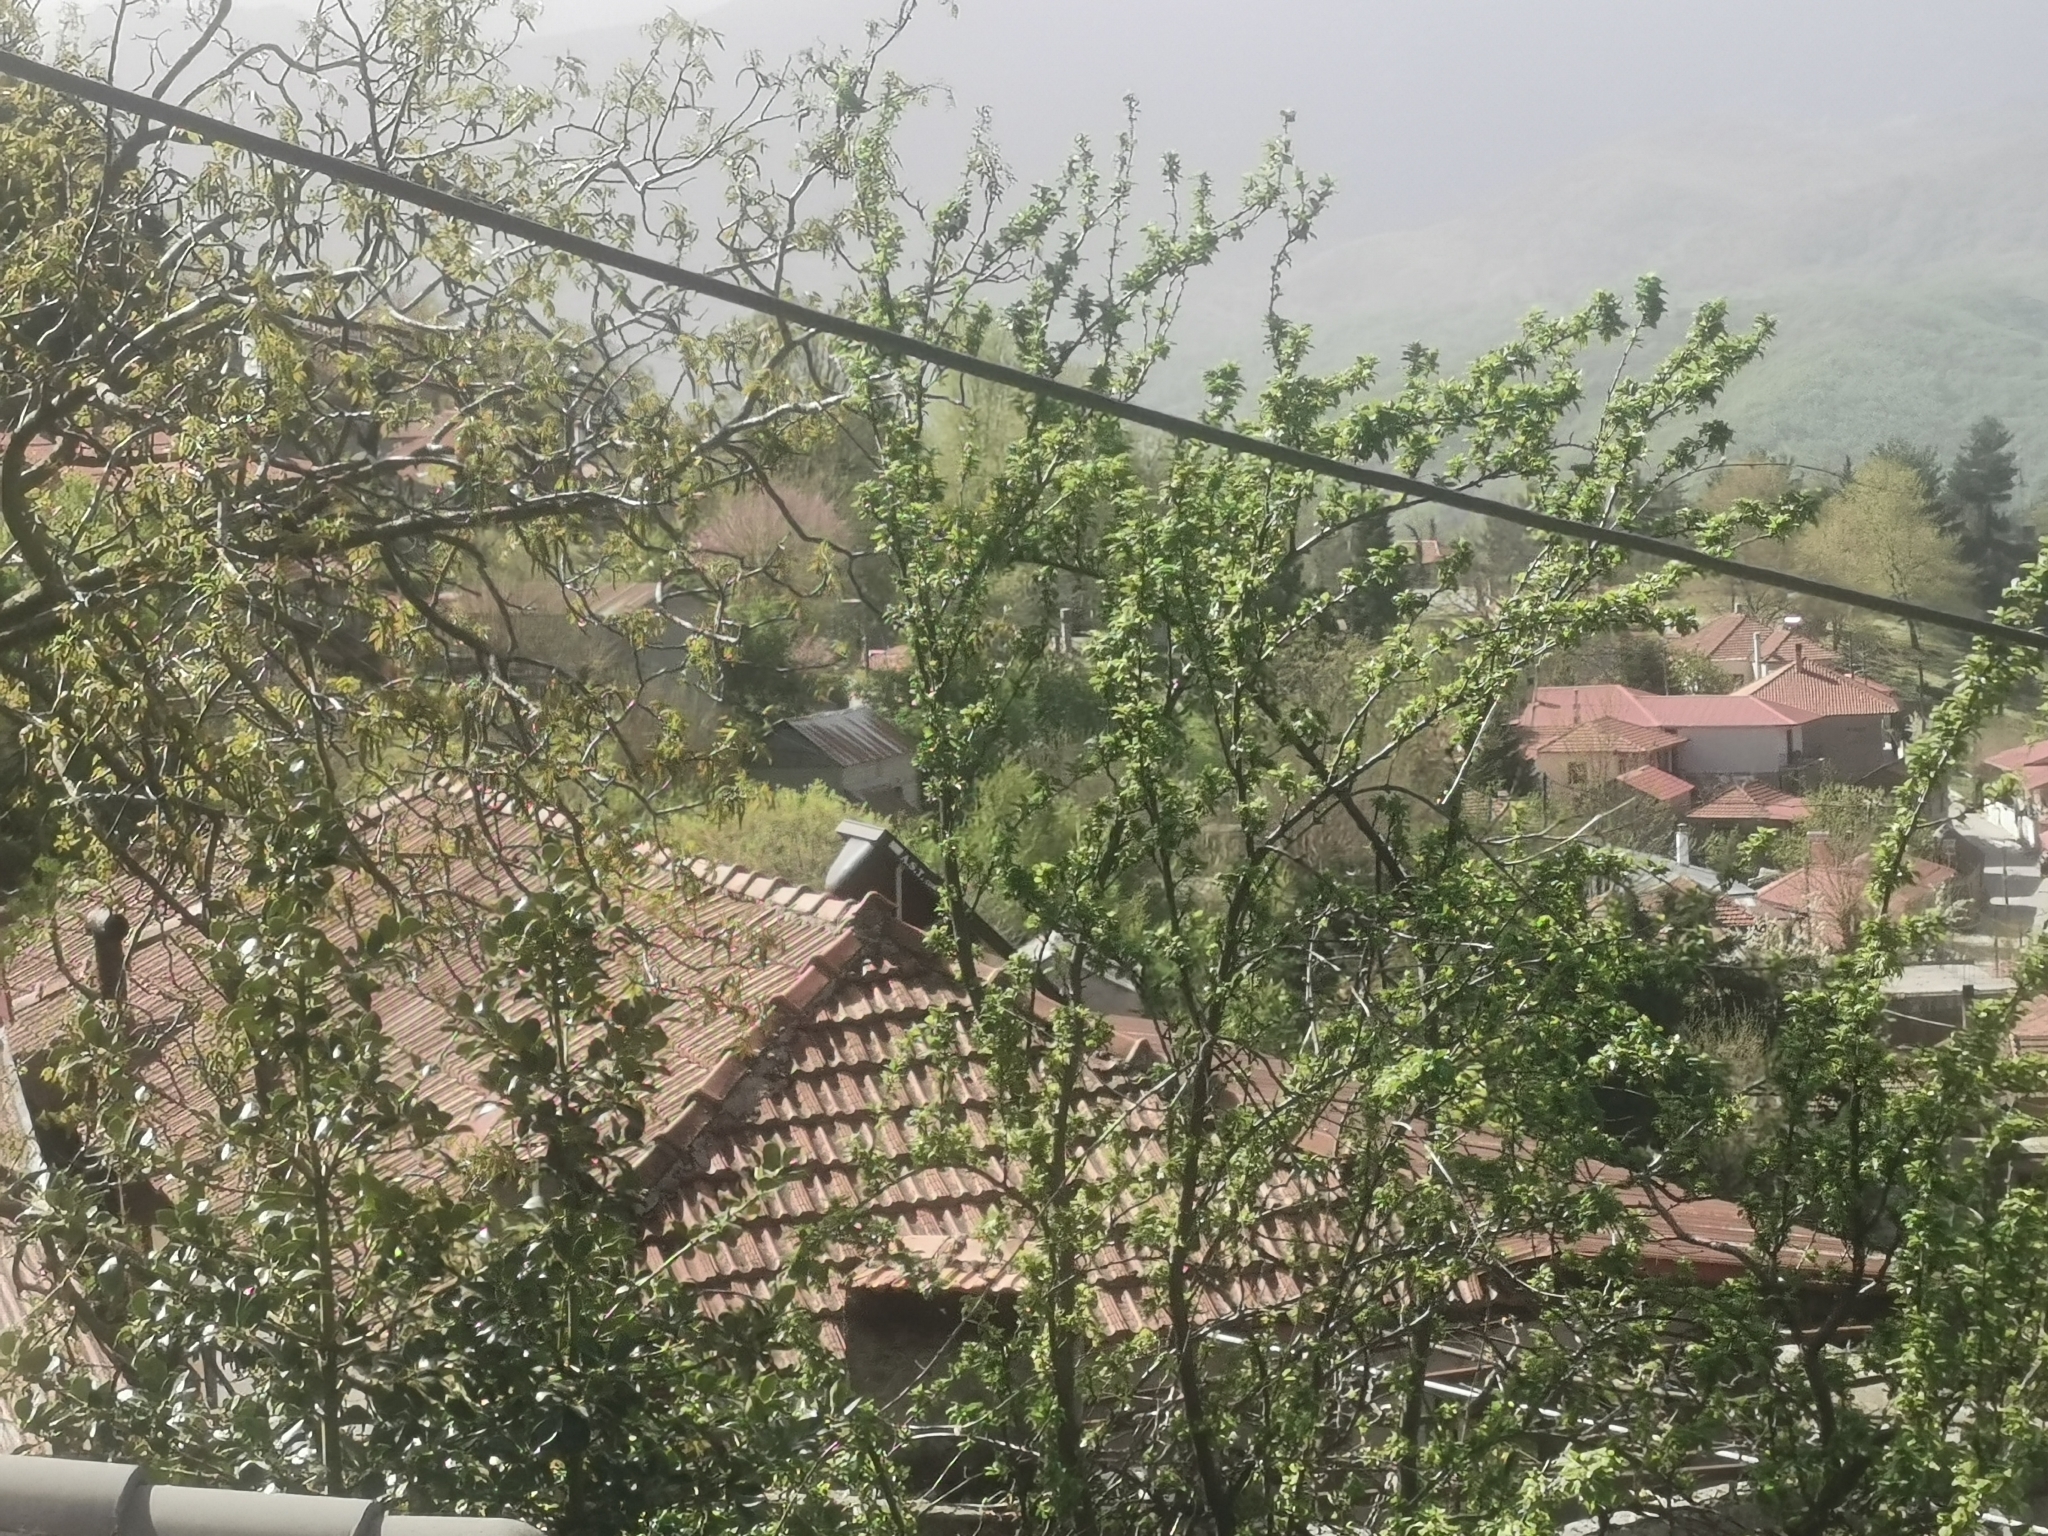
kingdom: Animalia
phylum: Chordata
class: Mammalia
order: Rodentia
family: Sciuridae
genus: Sciurus
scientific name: Sciurus vulgaris
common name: Eurasian red squirrel
